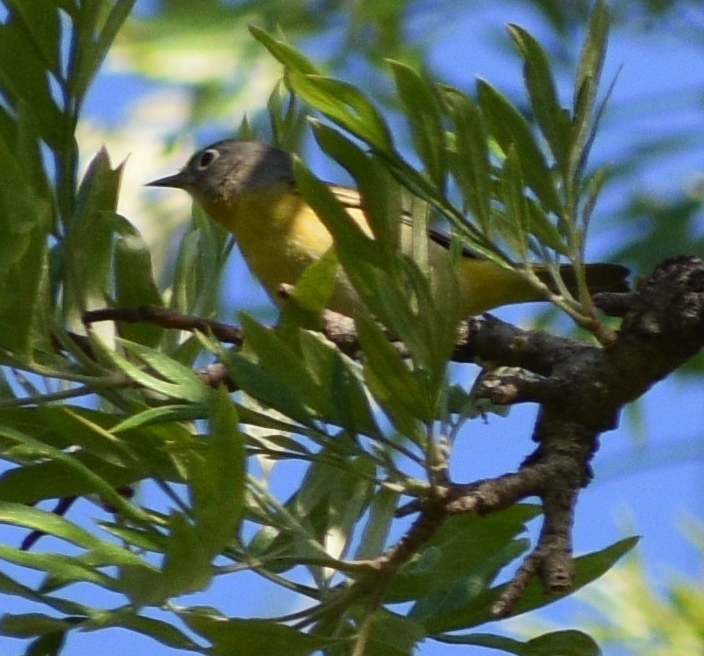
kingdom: Animalia
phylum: Chordata
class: Aves
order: Passeriformes
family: Parulidae
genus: Leiothlypis
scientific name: Leiothlypis ruficapilla
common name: Nashville warbler
